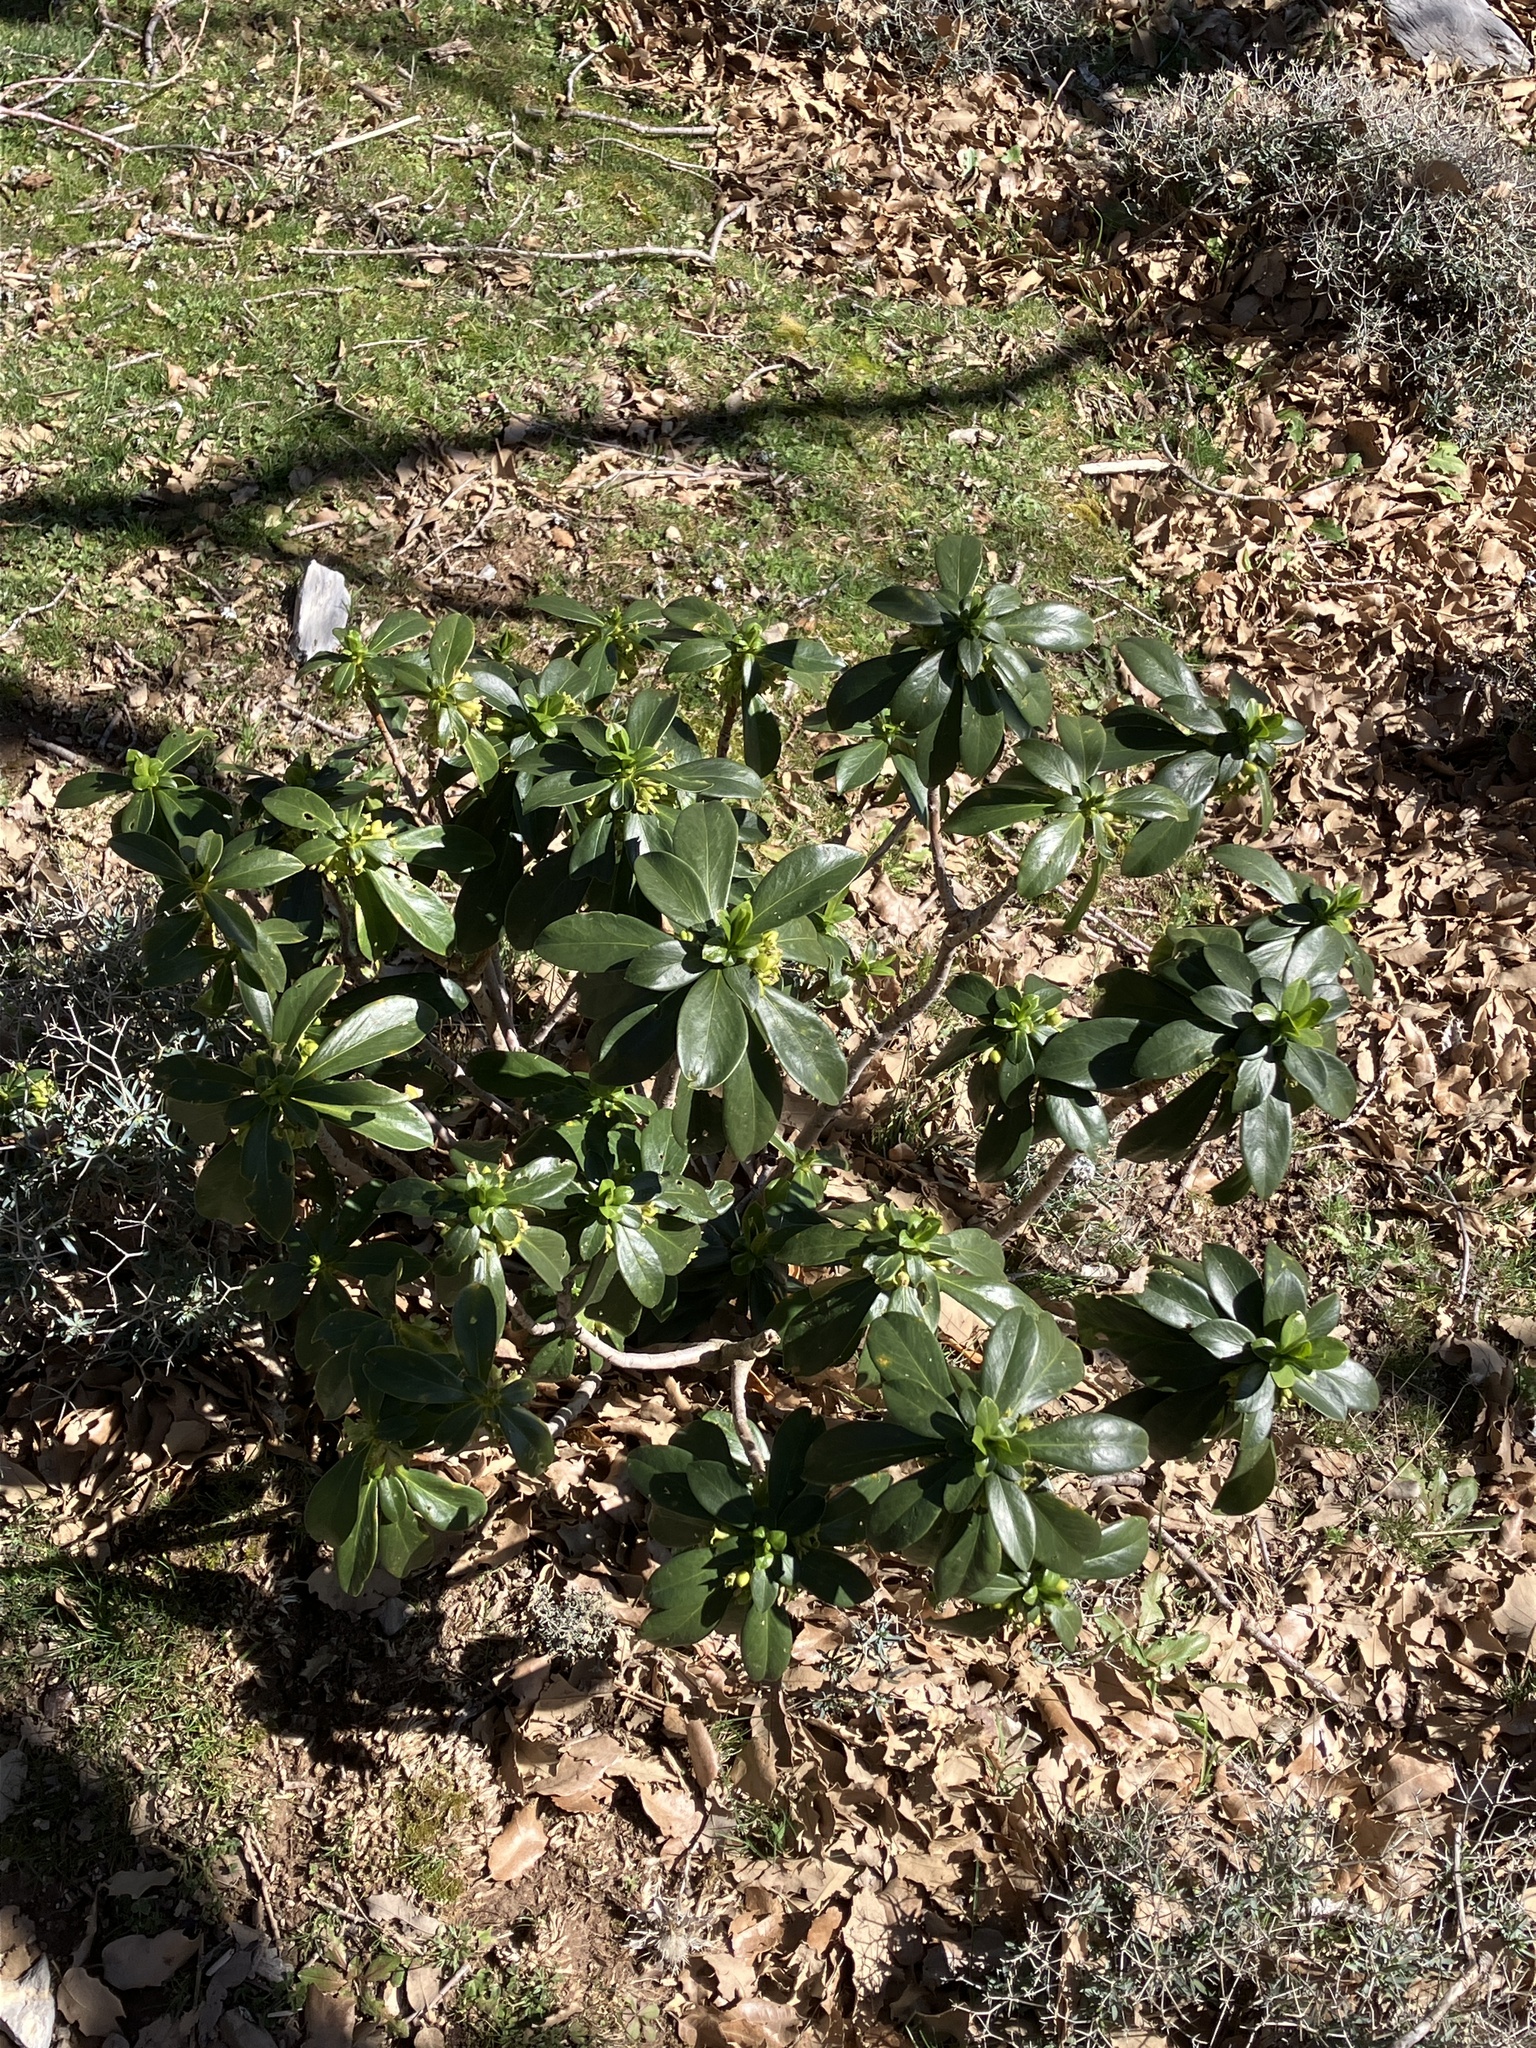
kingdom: Plantae
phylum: Tracheophyta
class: Magnoliopsida
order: Malvales
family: Thymelaeaceae
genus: Daphne
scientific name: Daphne laureola
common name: Spurge-laurel
